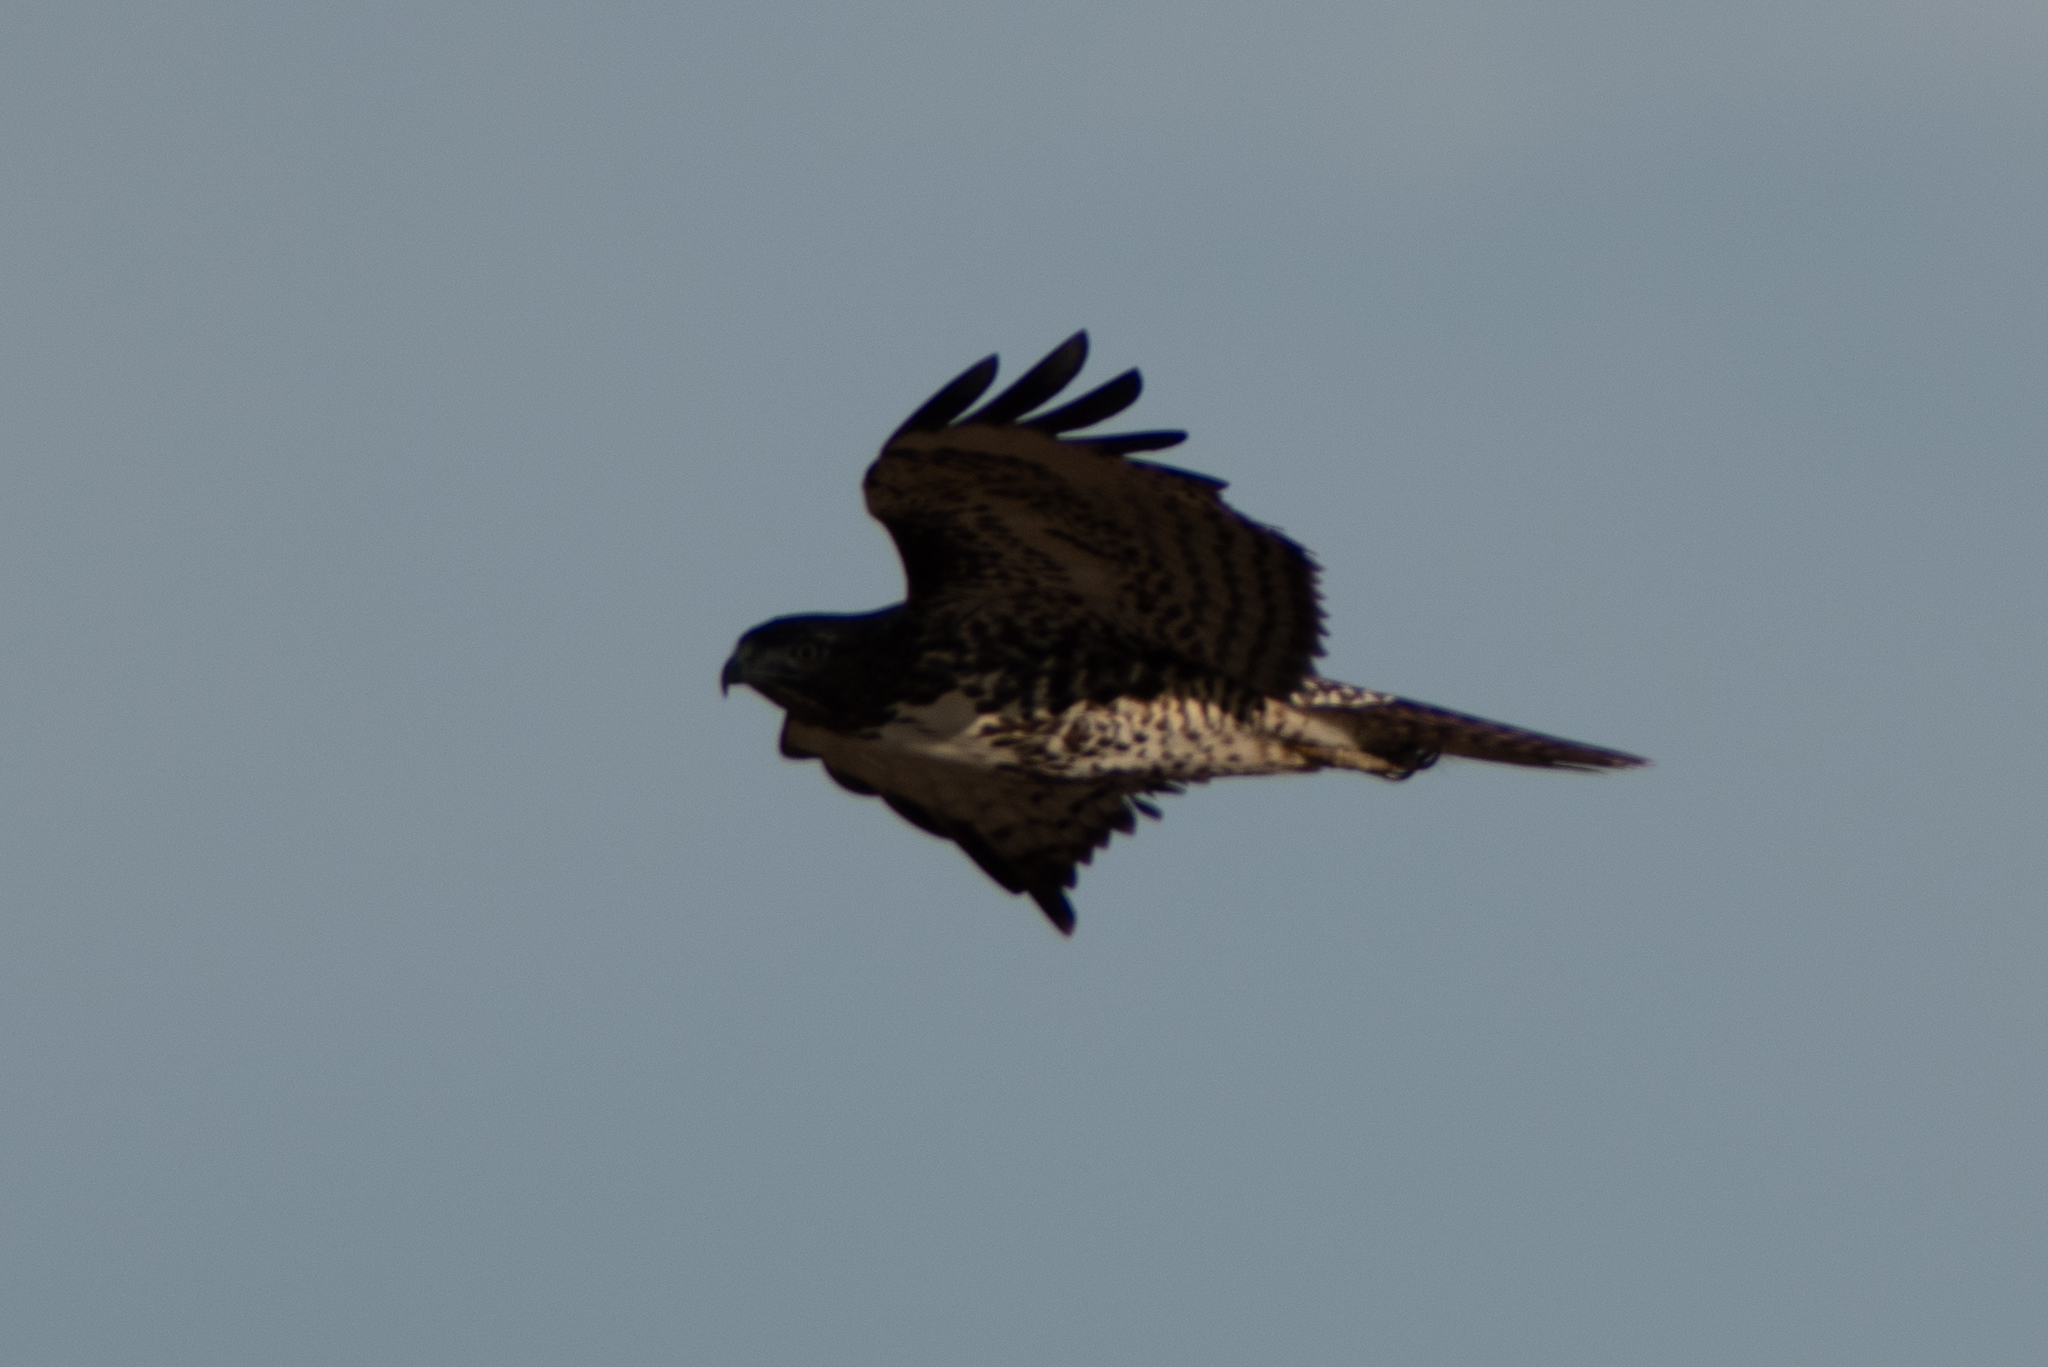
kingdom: Animalia
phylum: Chordata
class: Aves
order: Accipitriformes
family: Accipitridae
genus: Buteo
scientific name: Buteo jamaicensis
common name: Red-tailed hawk
